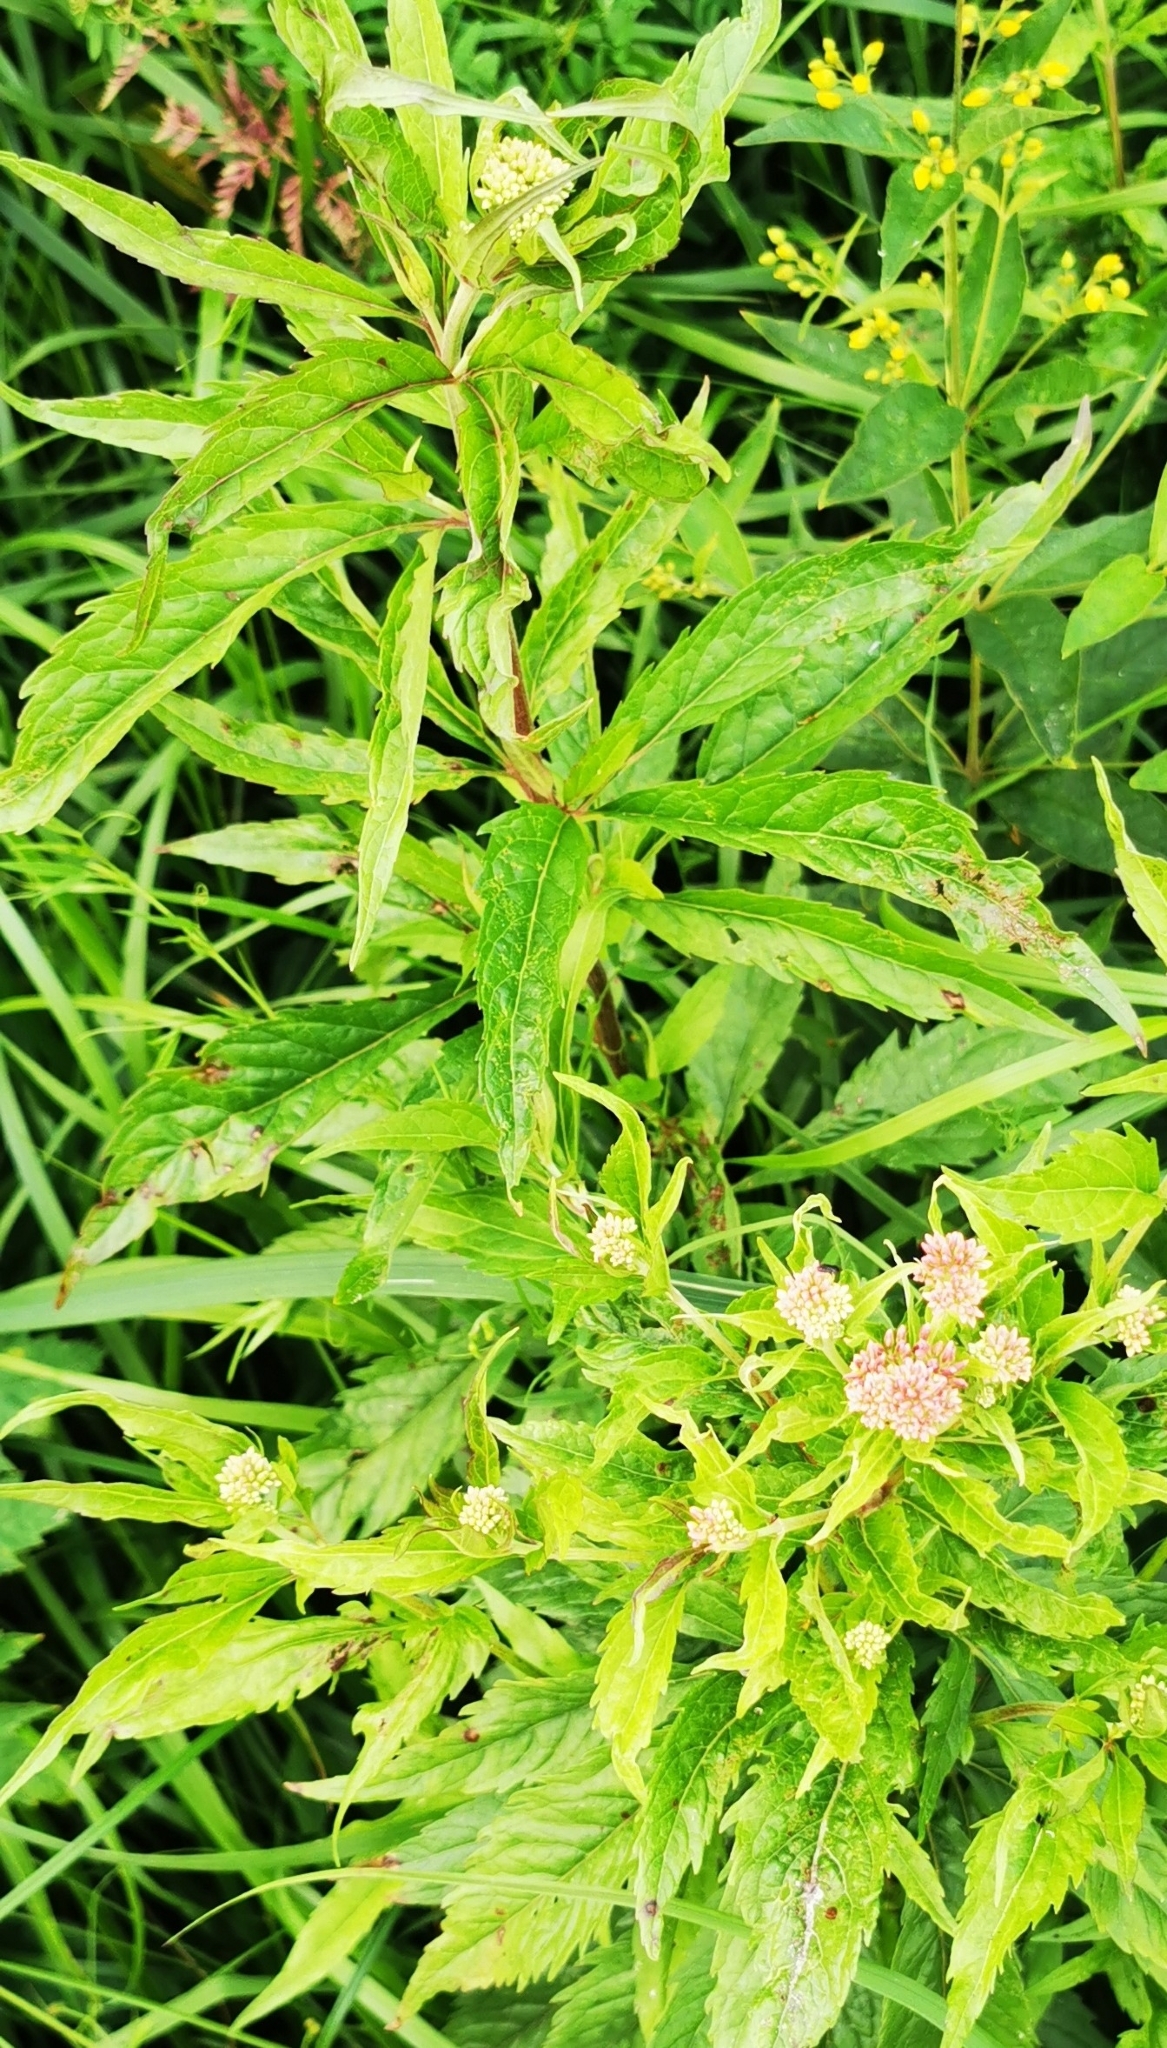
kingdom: Plantae
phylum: Tracheophyta
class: Magnoliopsida
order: Asterales
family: Asteraceae
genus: Eupatorium
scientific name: Eupatorium cannabinum
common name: Hemp-agrimony
